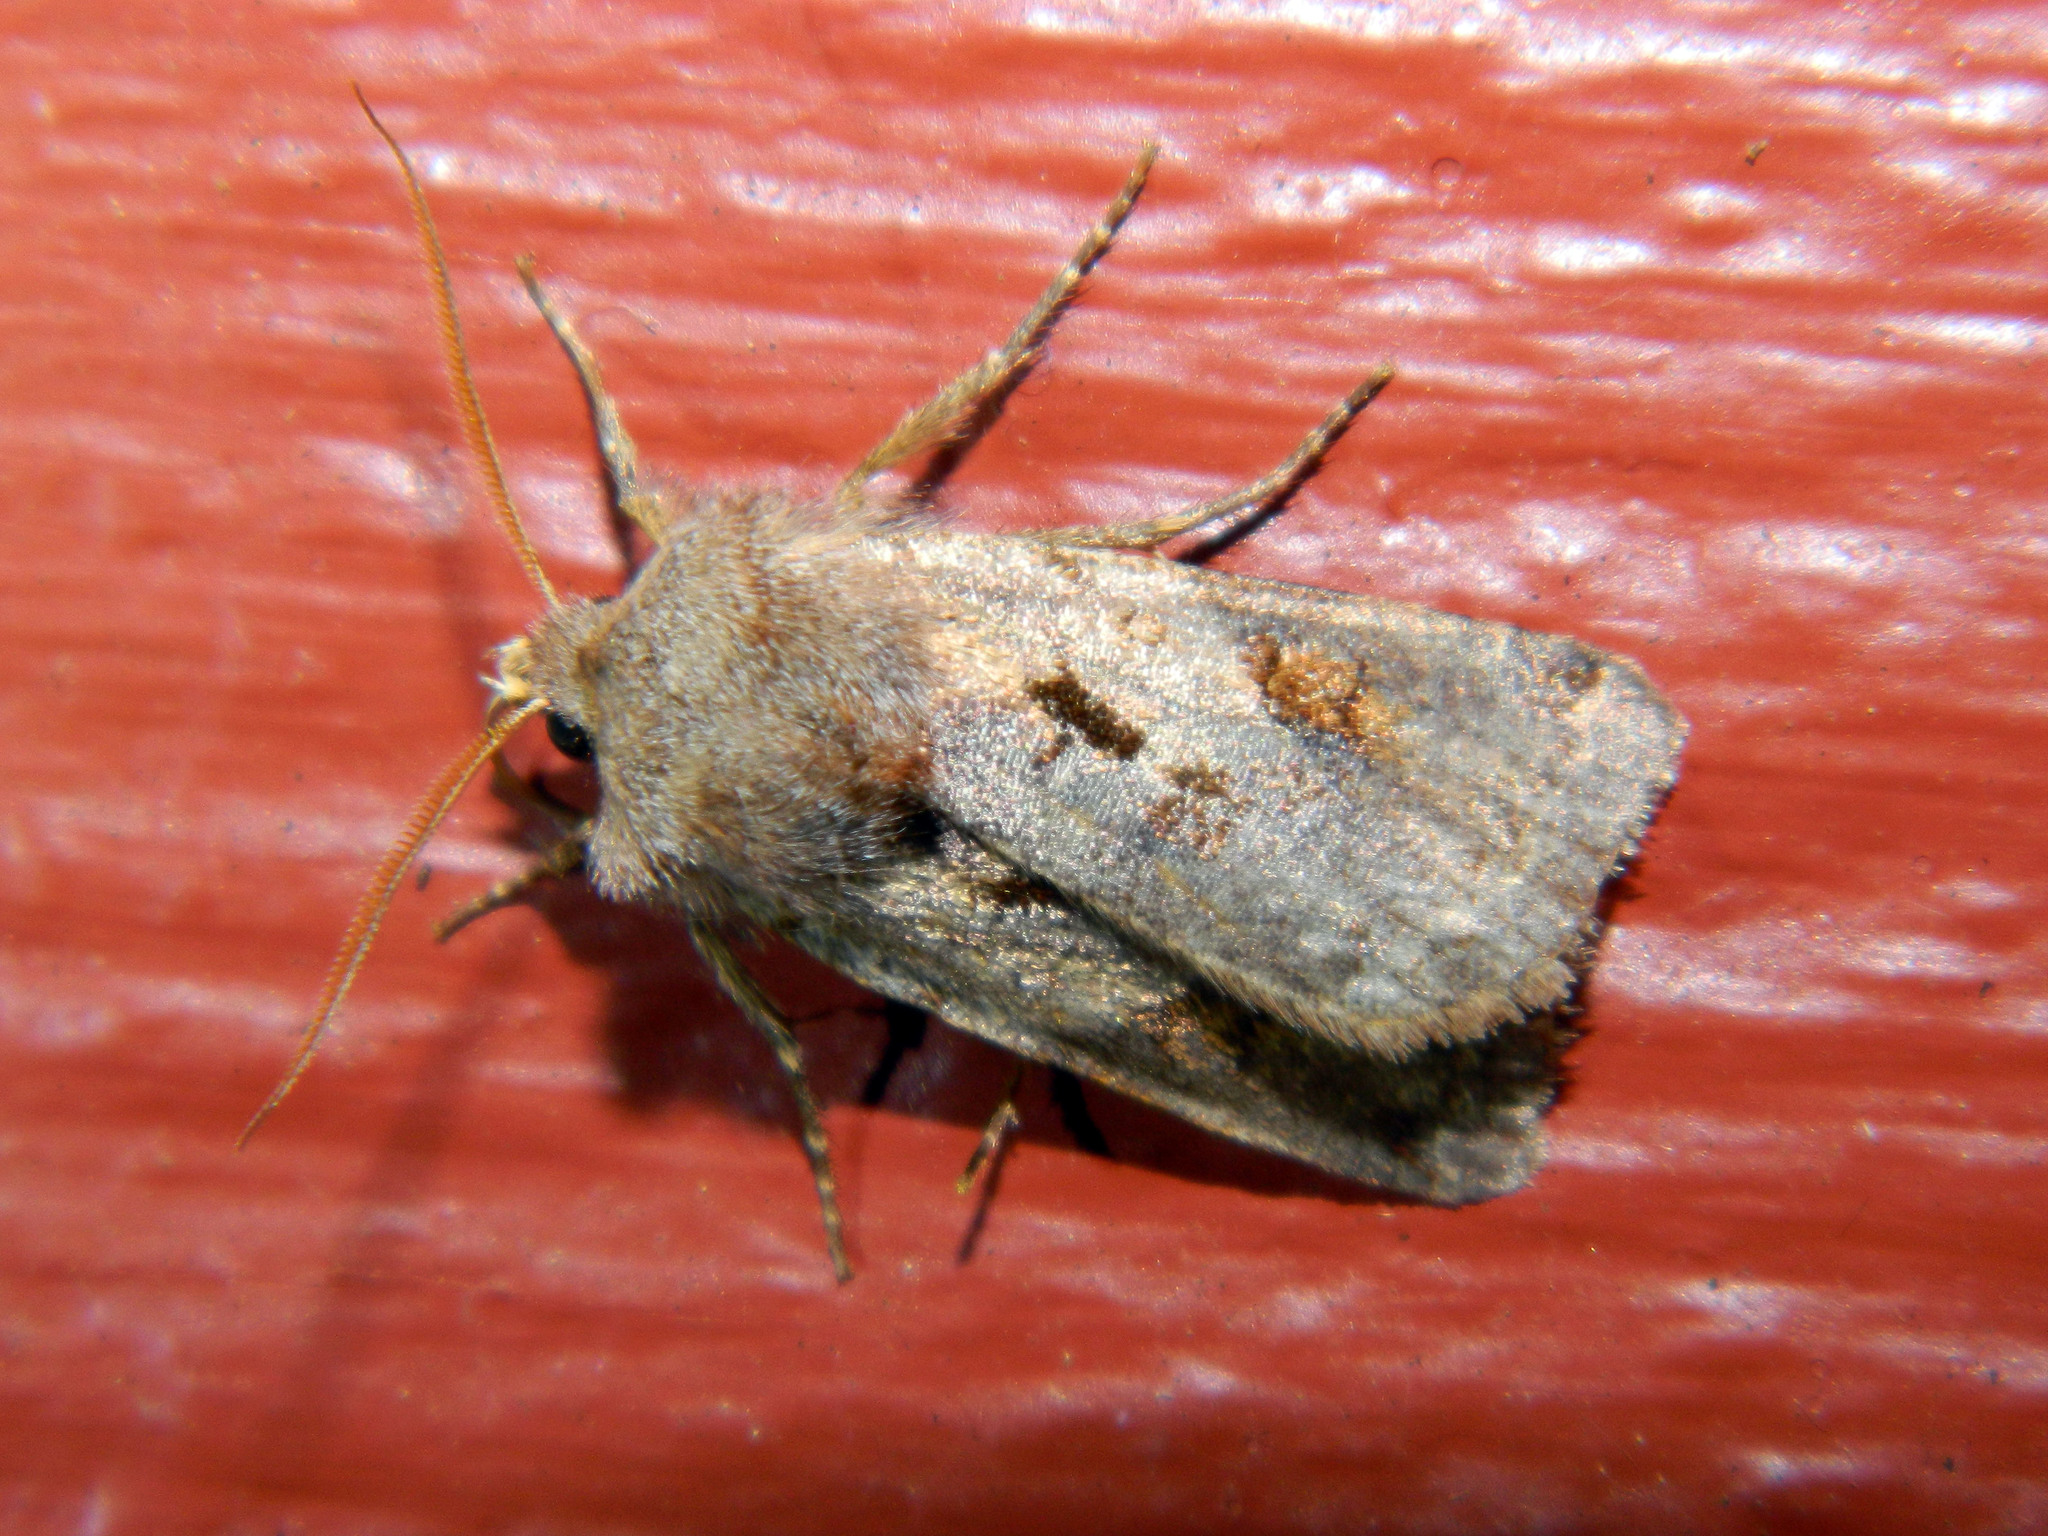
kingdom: Animalia
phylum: Arthropoda
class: Insecta
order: Lepidoptera
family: Noctuidae
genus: Cerastis
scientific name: Cerastis salicarum
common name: Willow dart
